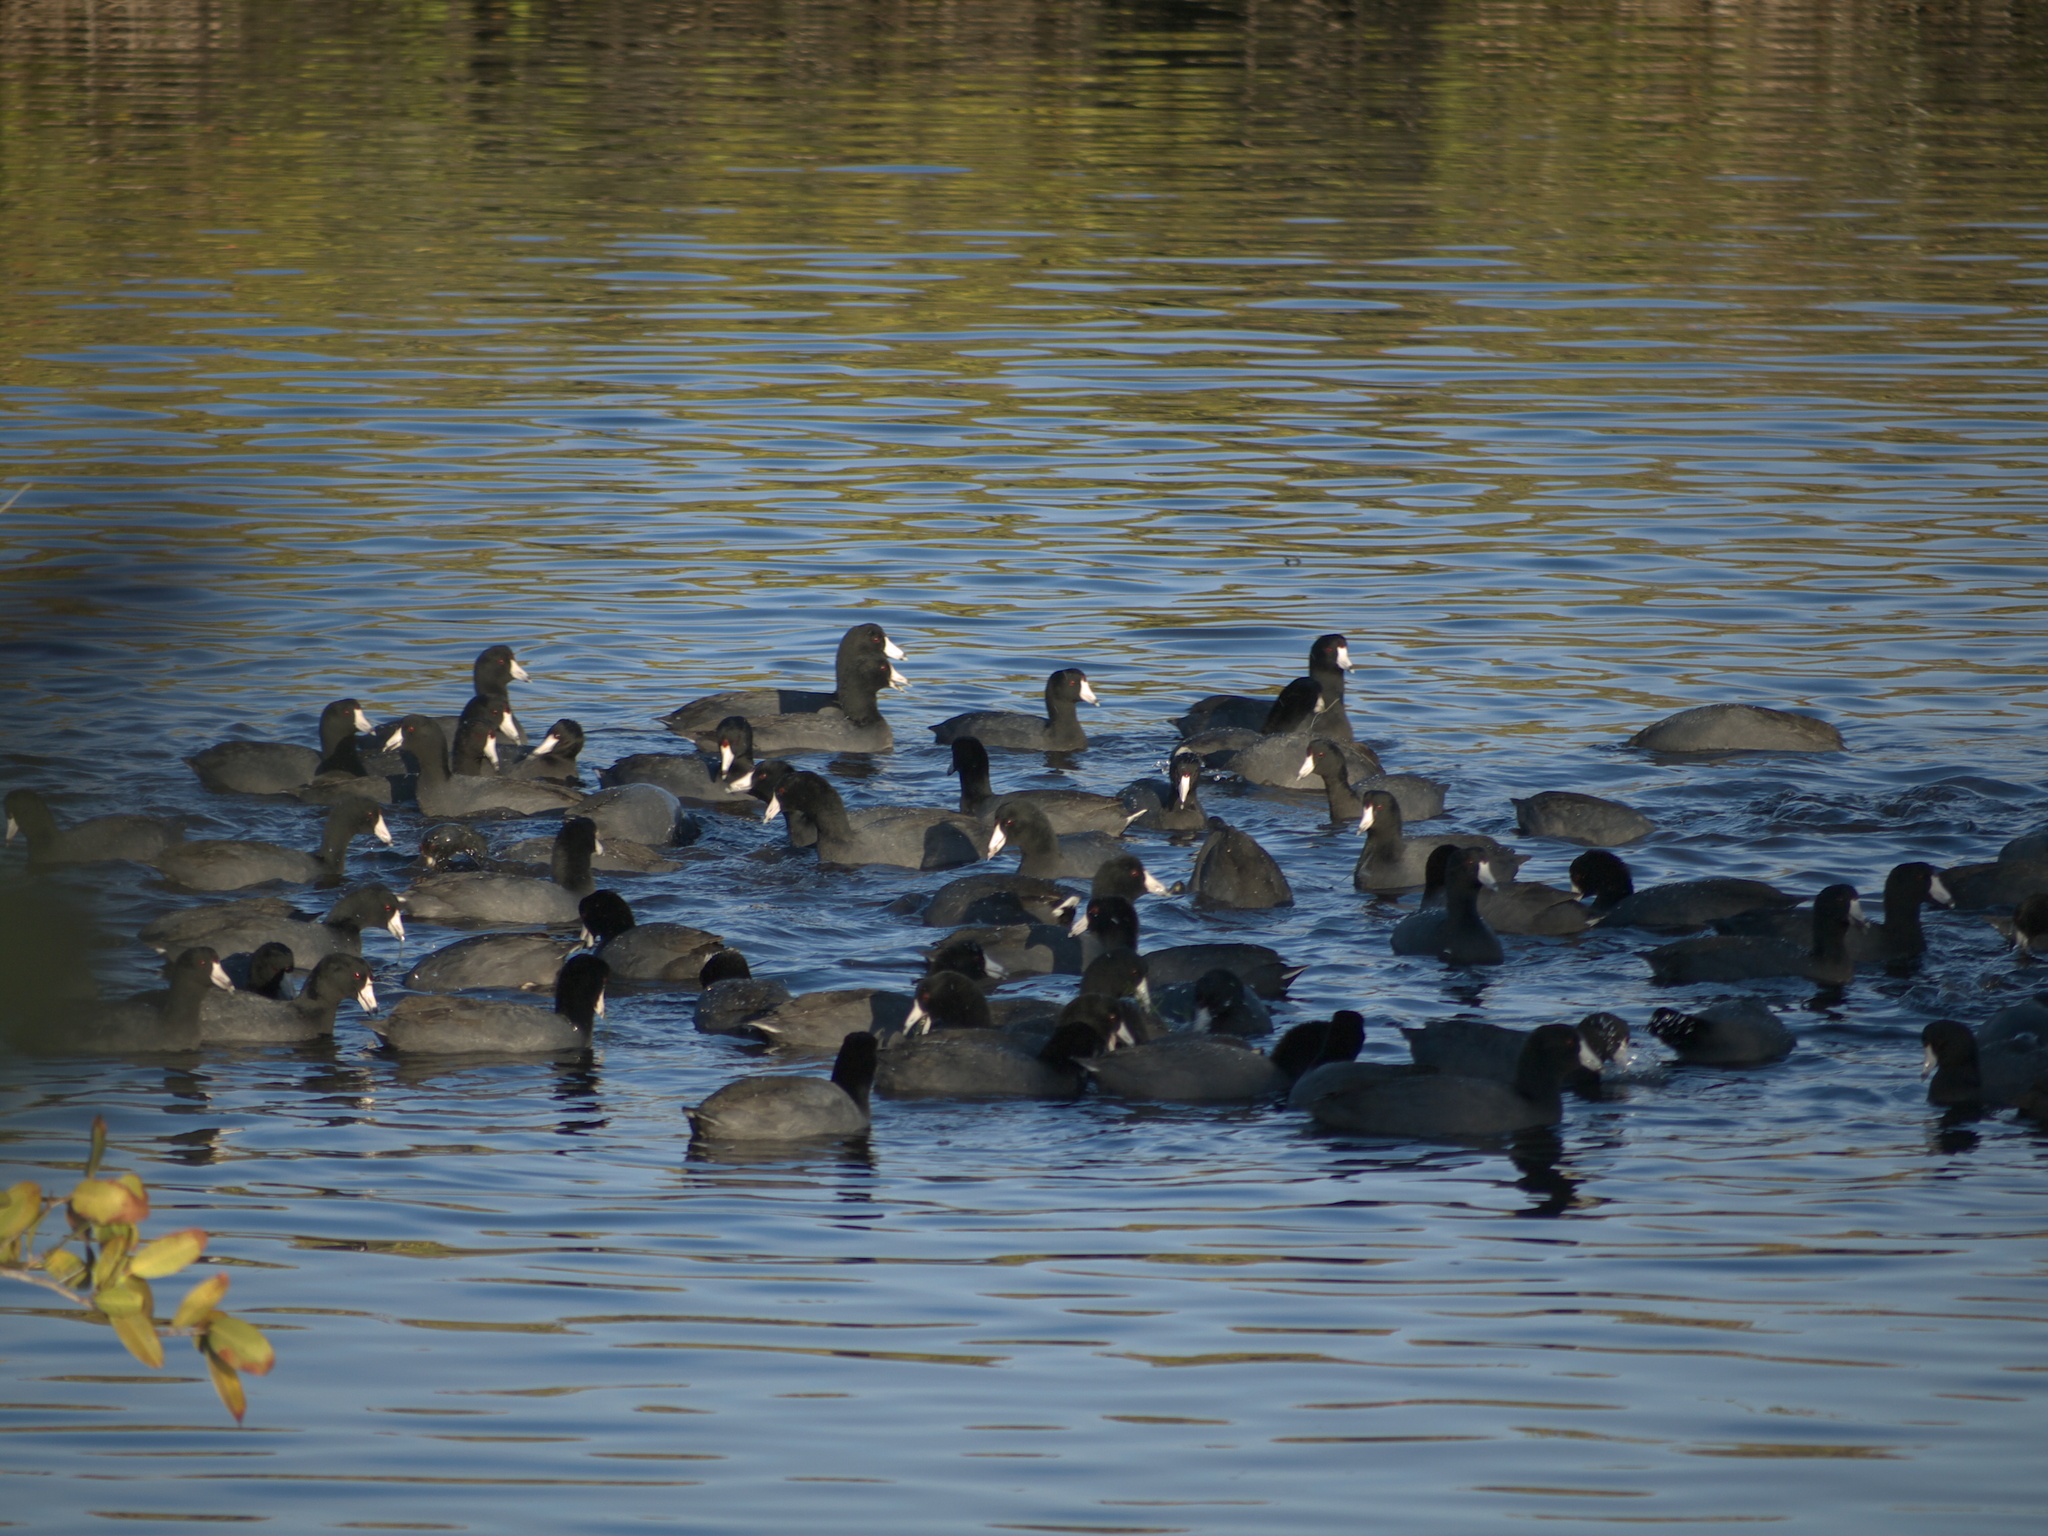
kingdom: Animalia
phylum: Chordata
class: Aves
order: Gruiformes
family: Rallidae
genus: Fulica
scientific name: Fulica americana
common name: American coot
